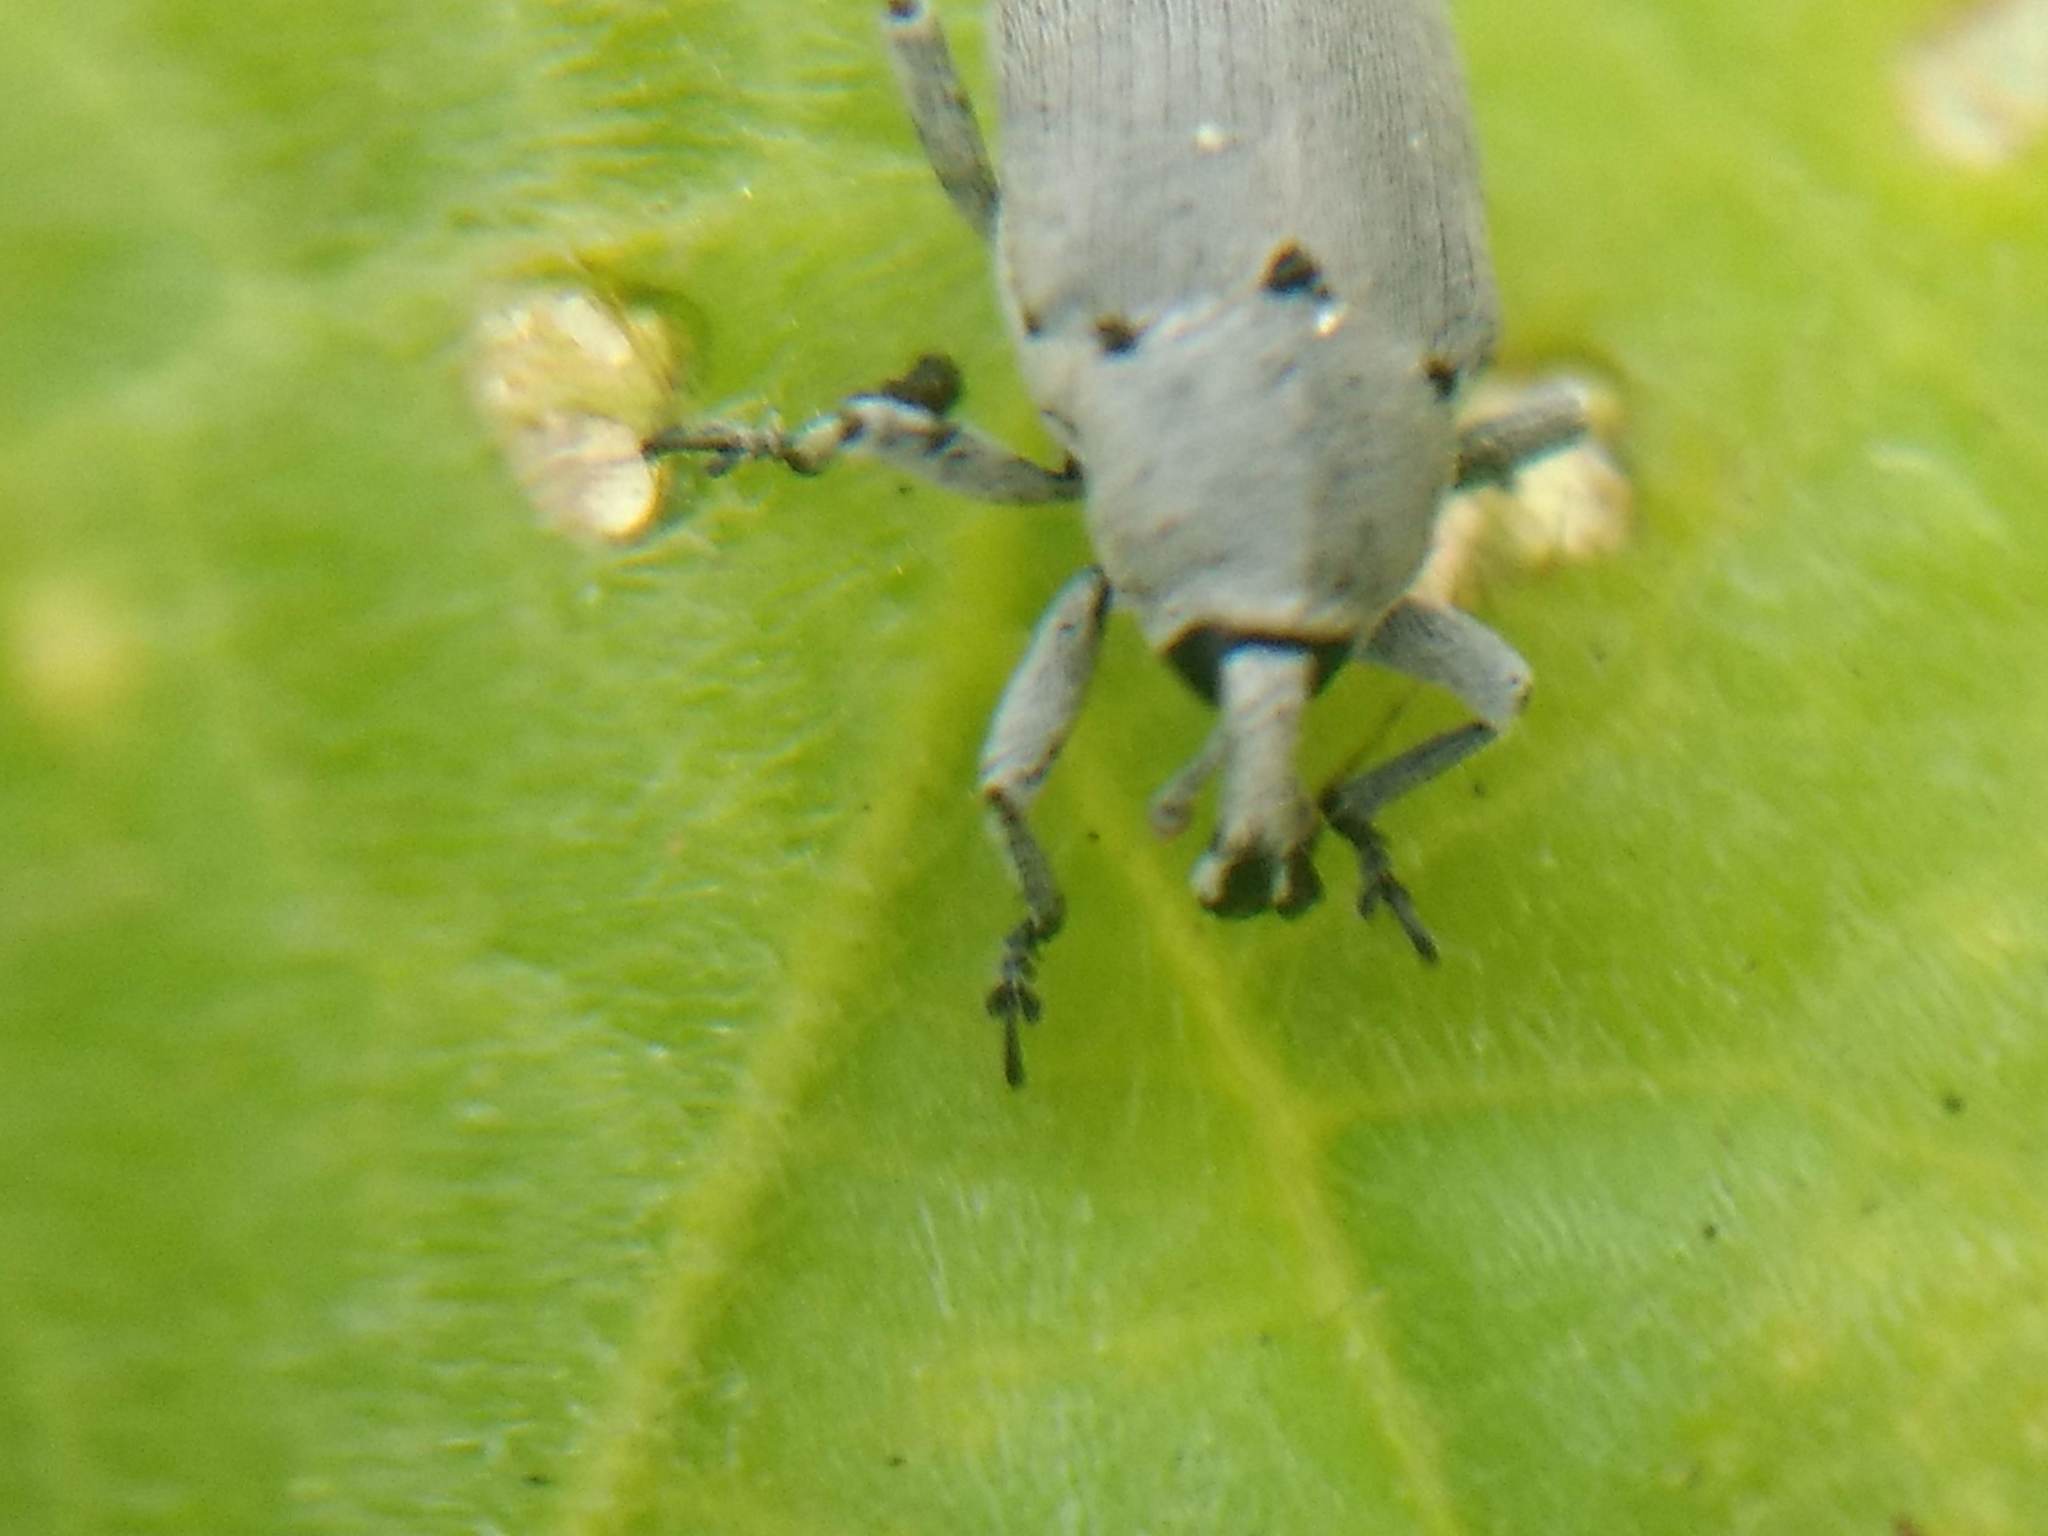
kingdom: Animalia
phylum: Arthropoda
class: Insecta
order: Coleoptera
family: Curculionidae
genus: Trichobaris
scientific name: Trichobaris compacta
